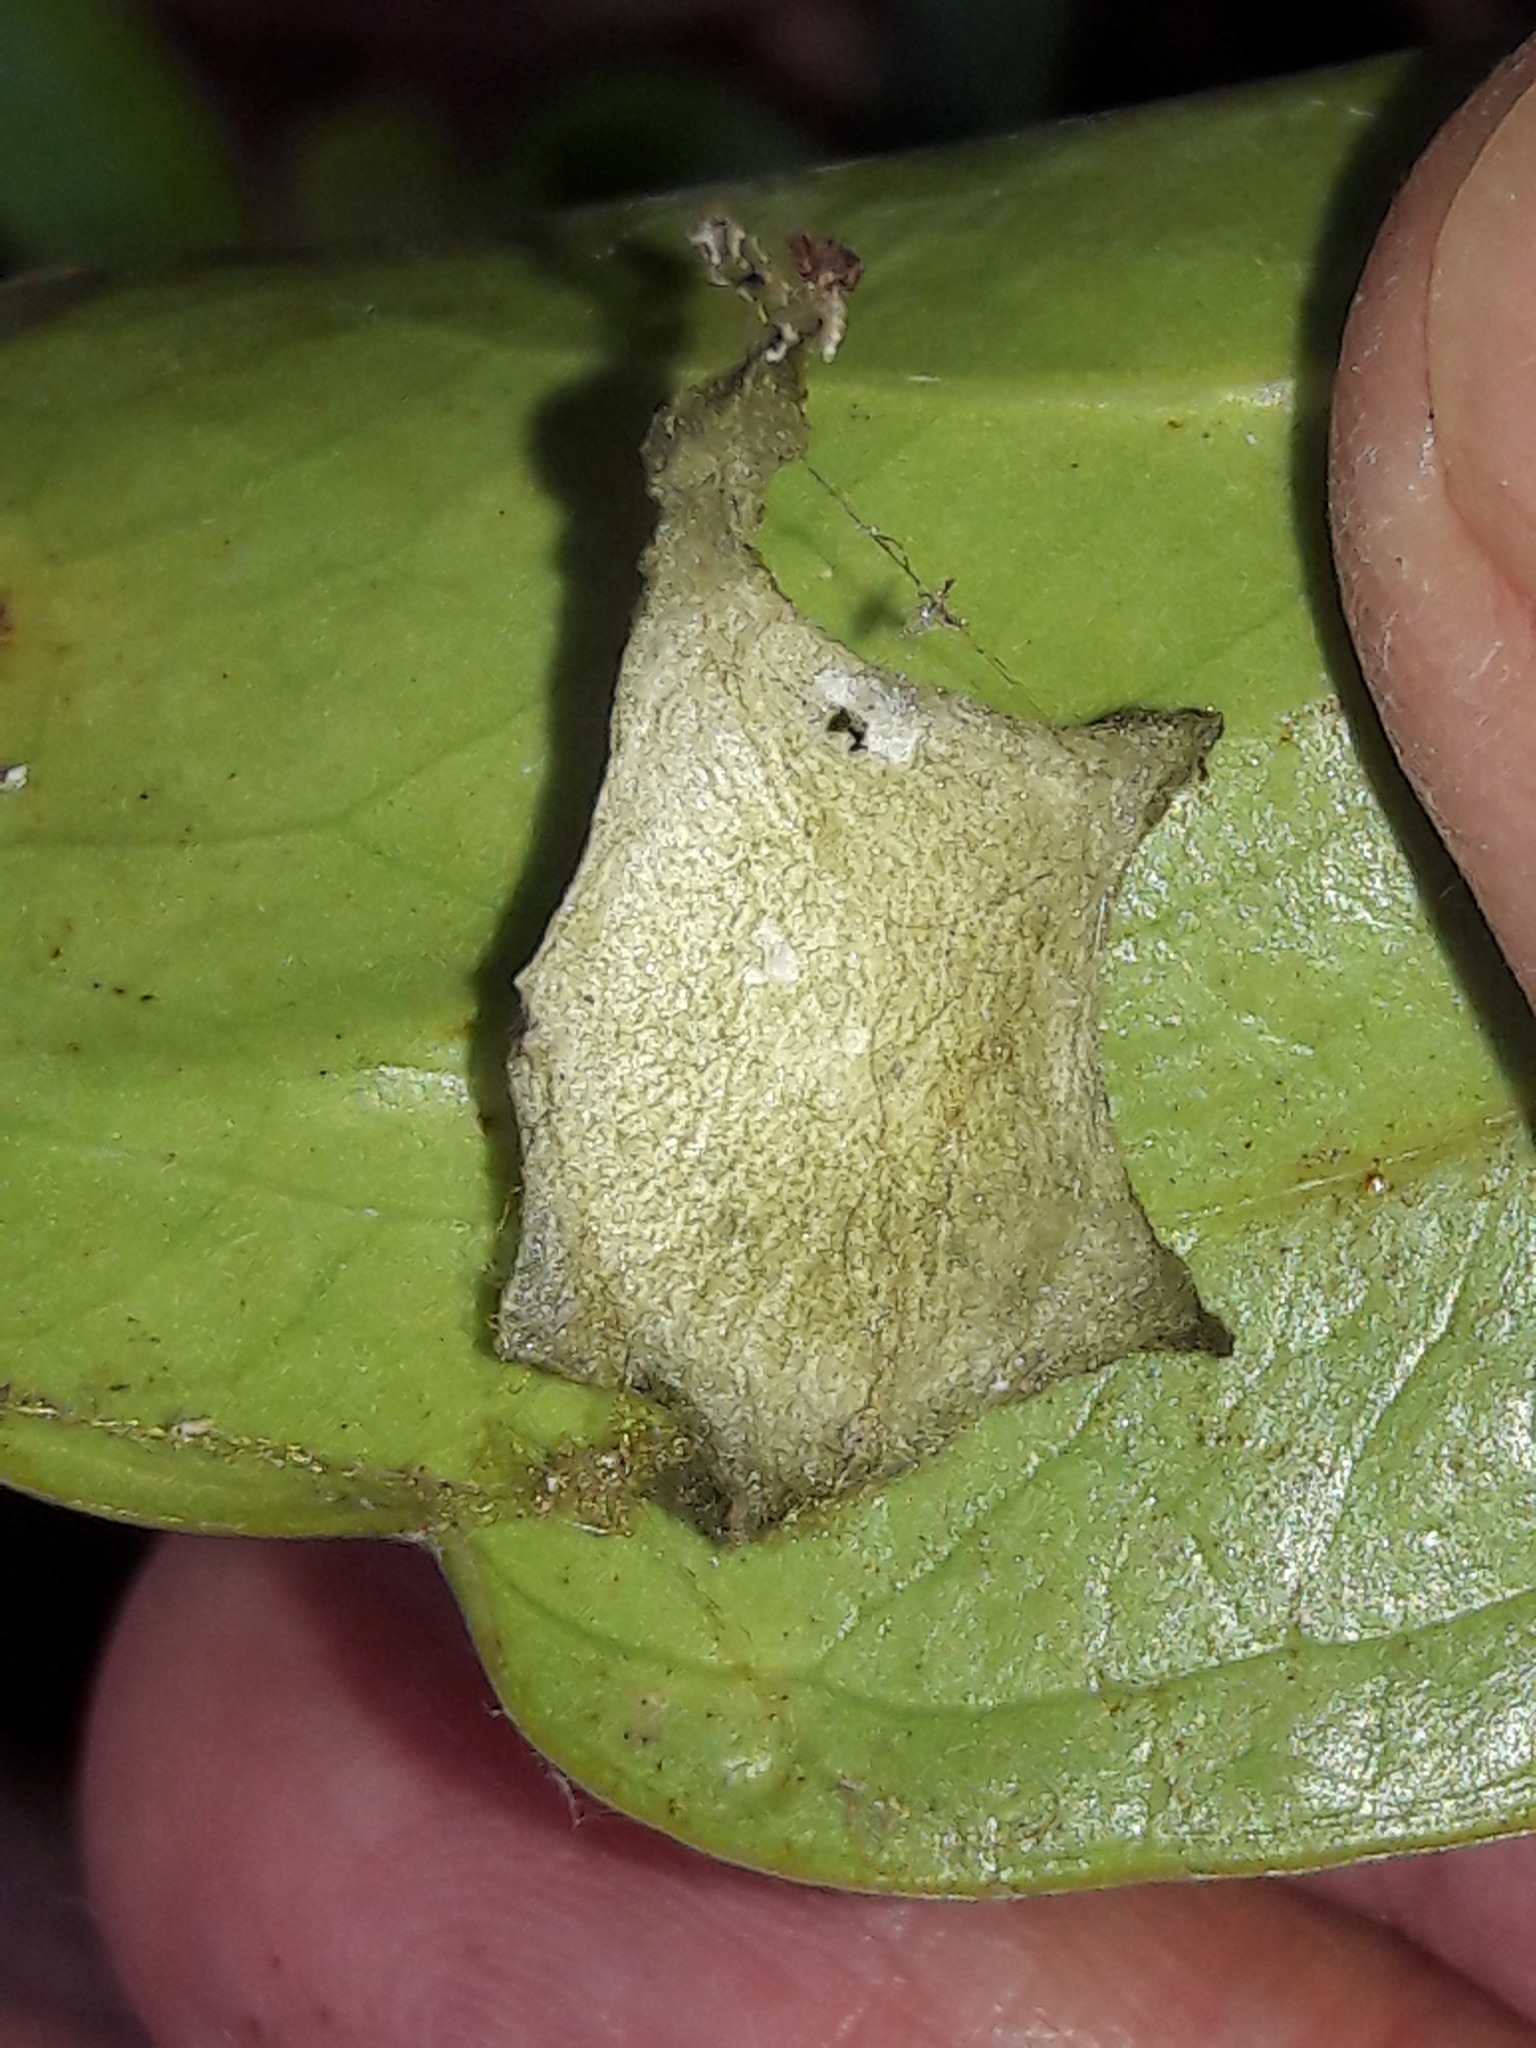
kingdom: Animalia
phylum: Arthropoda
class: Arachnida
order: Araneae
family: Araneidae
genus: Argiope
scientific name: Argiope argentata
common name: Orb weavers
